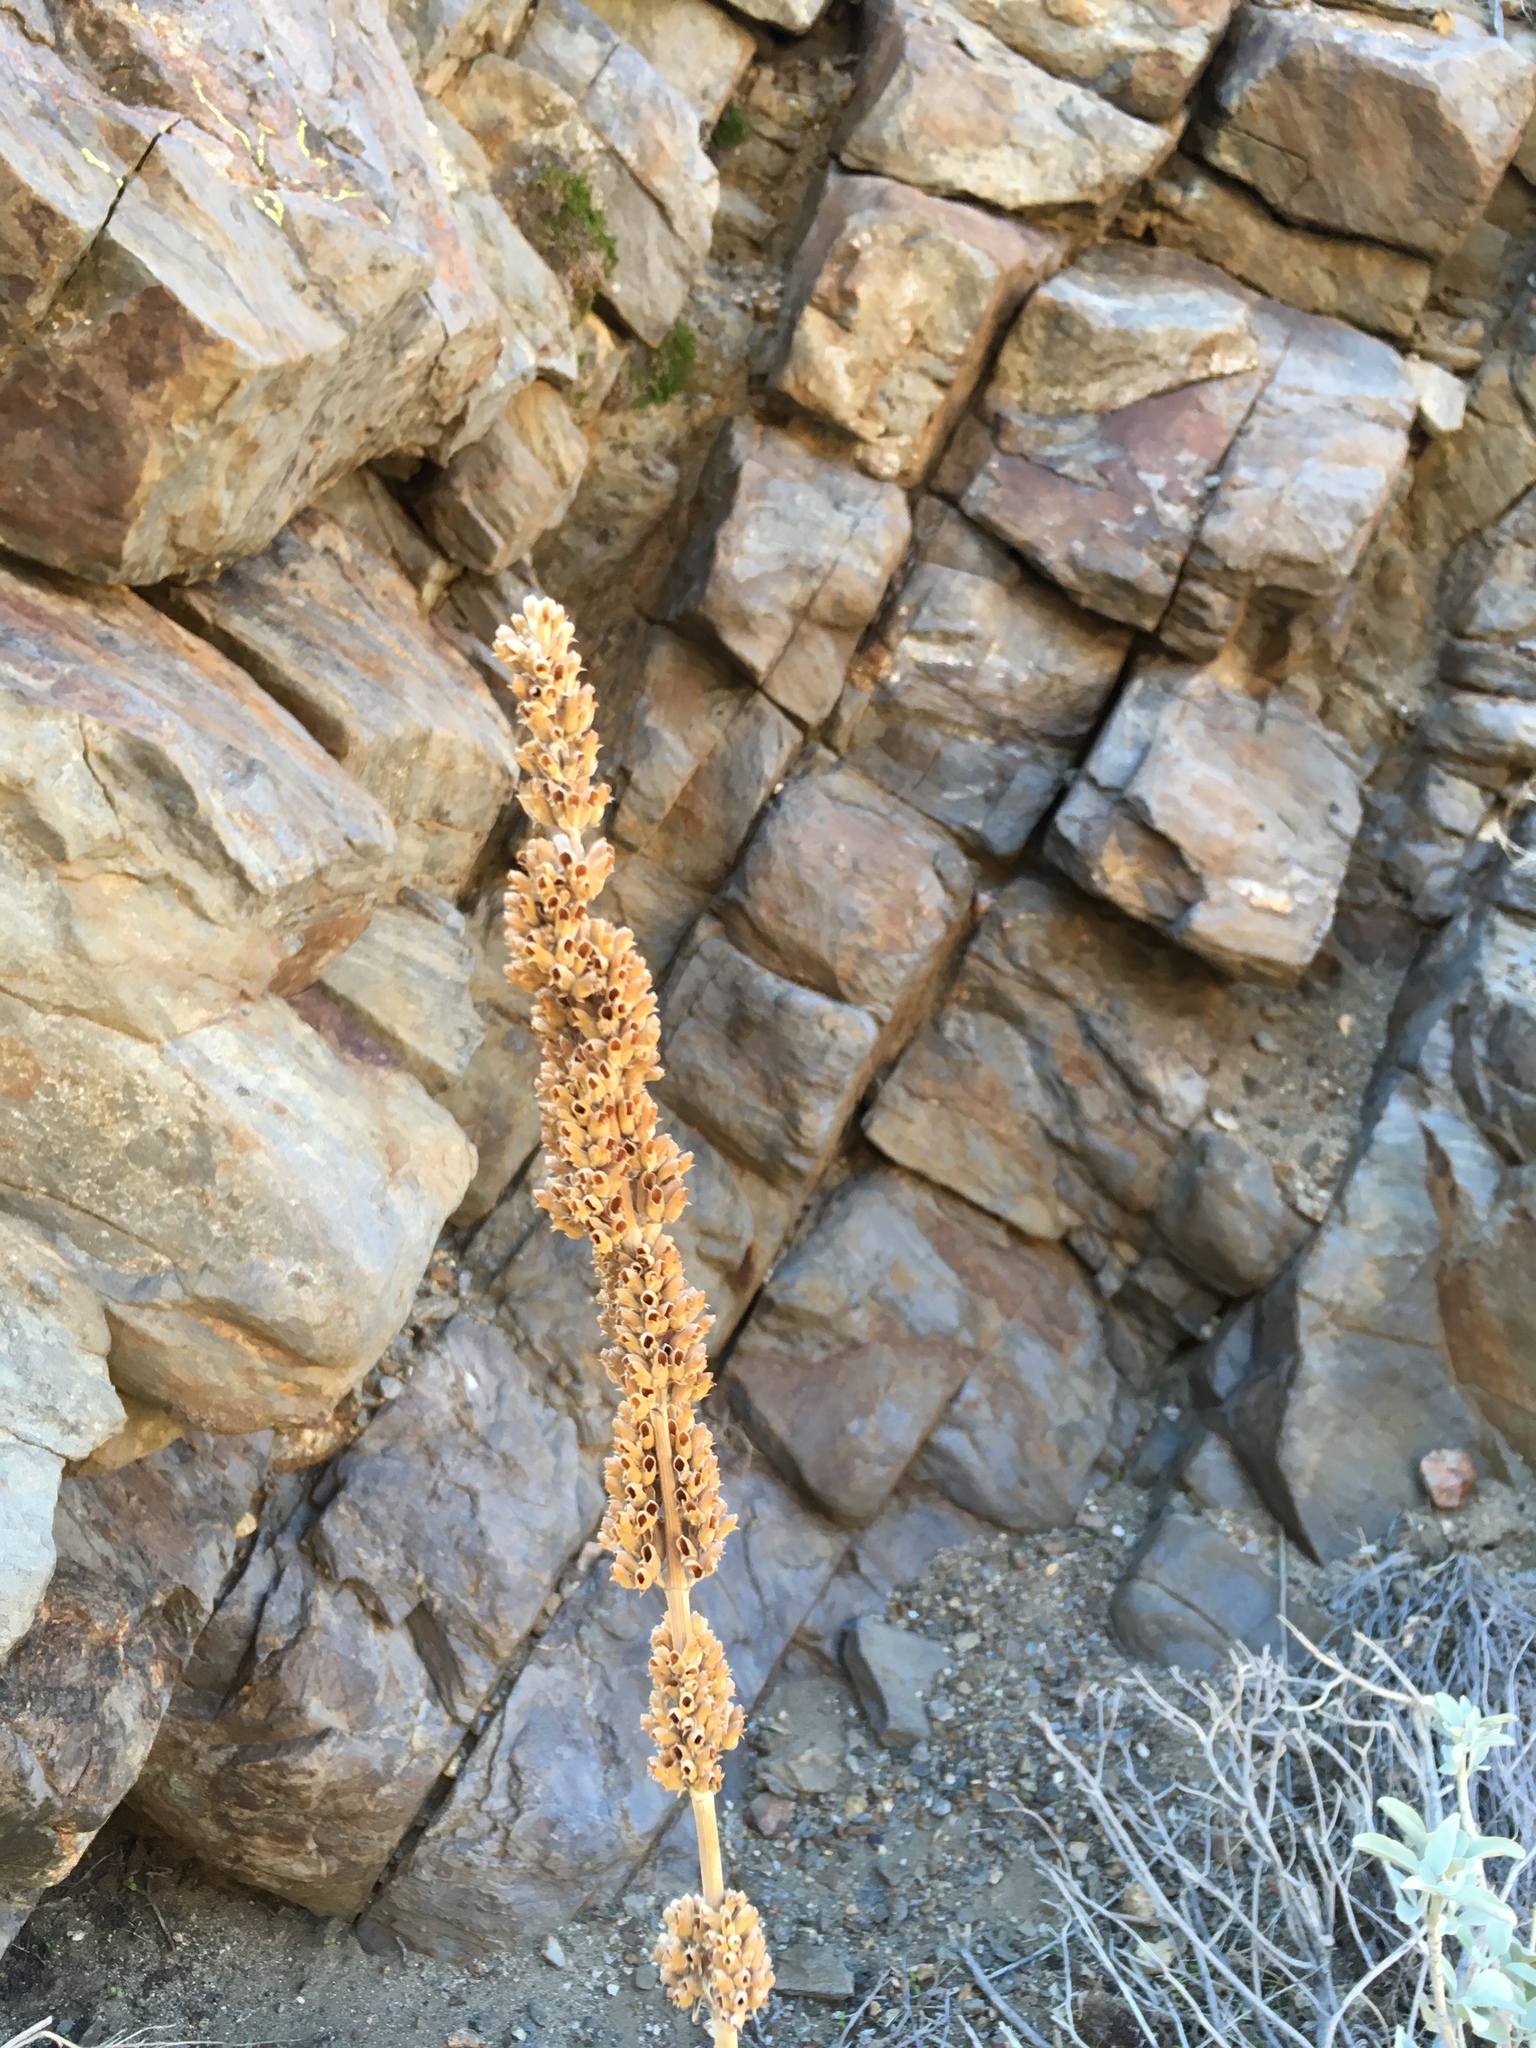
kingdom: Plantae
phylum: Tracheophyta
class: Magnoliopsida
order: Lamiales
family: Lamiaceae
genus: Salvia
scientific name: Salvia apiana
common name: White sage
